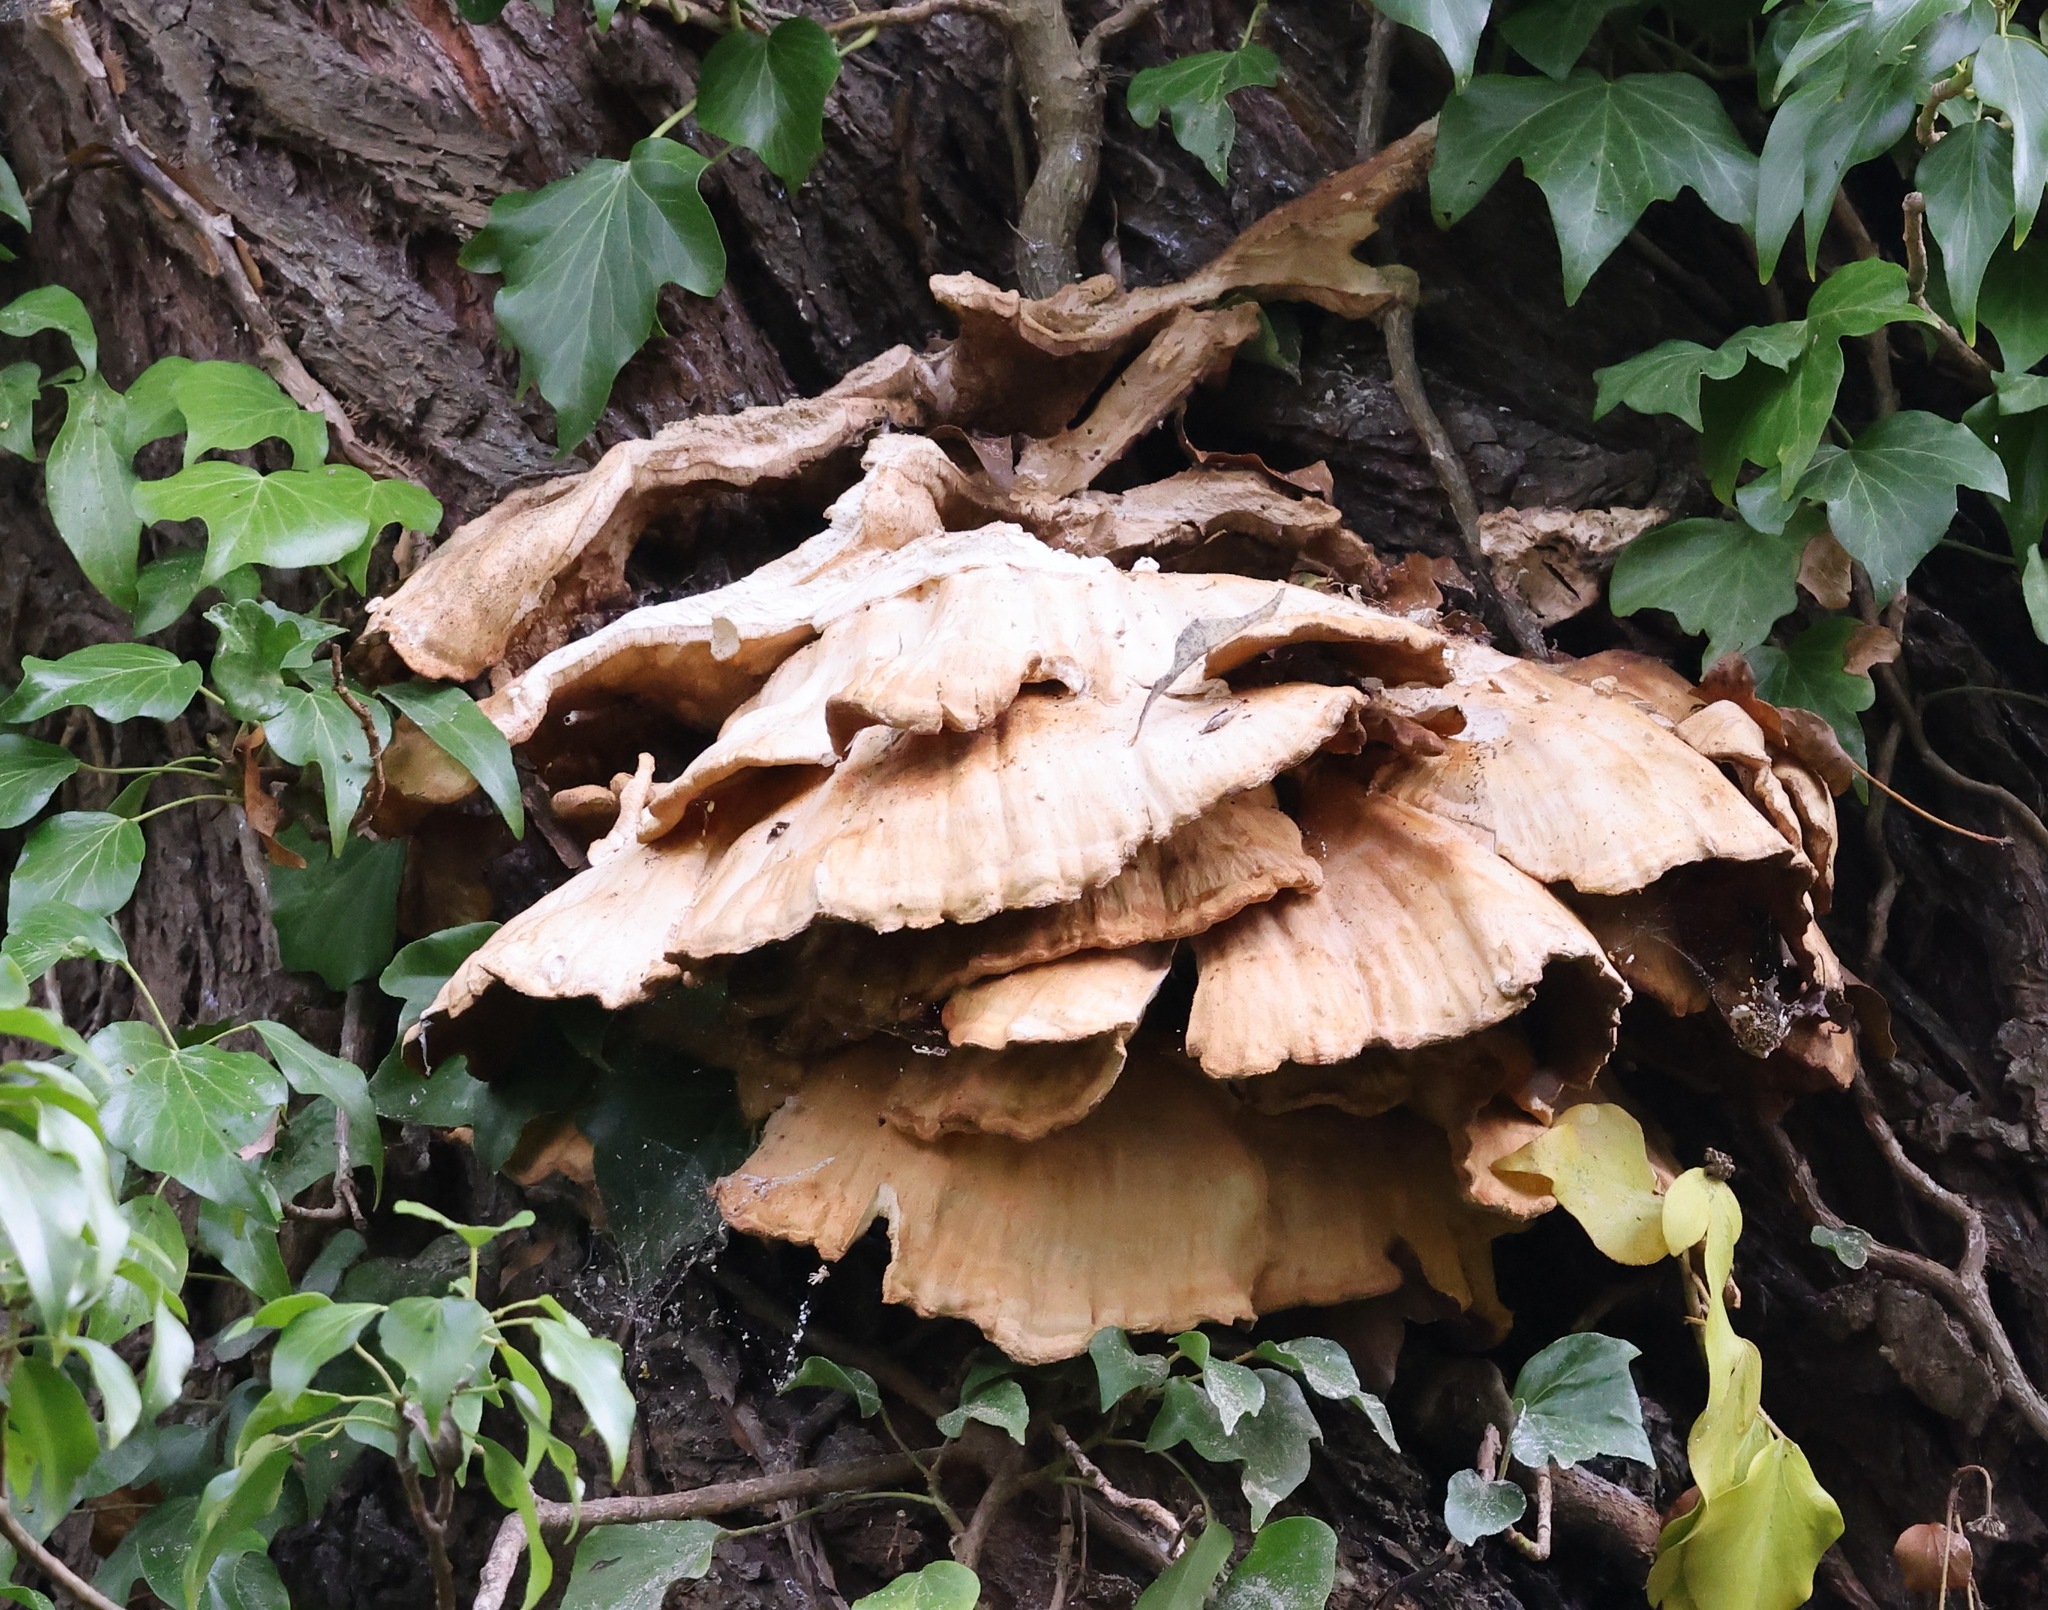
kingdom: Fungi
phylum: Basidiomycota
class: Agaricomycetes
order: Polyporales
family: Laetiporaceae
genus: Laetiporus
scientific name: Laetiporus sulphureus
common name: Chicken of the woods
